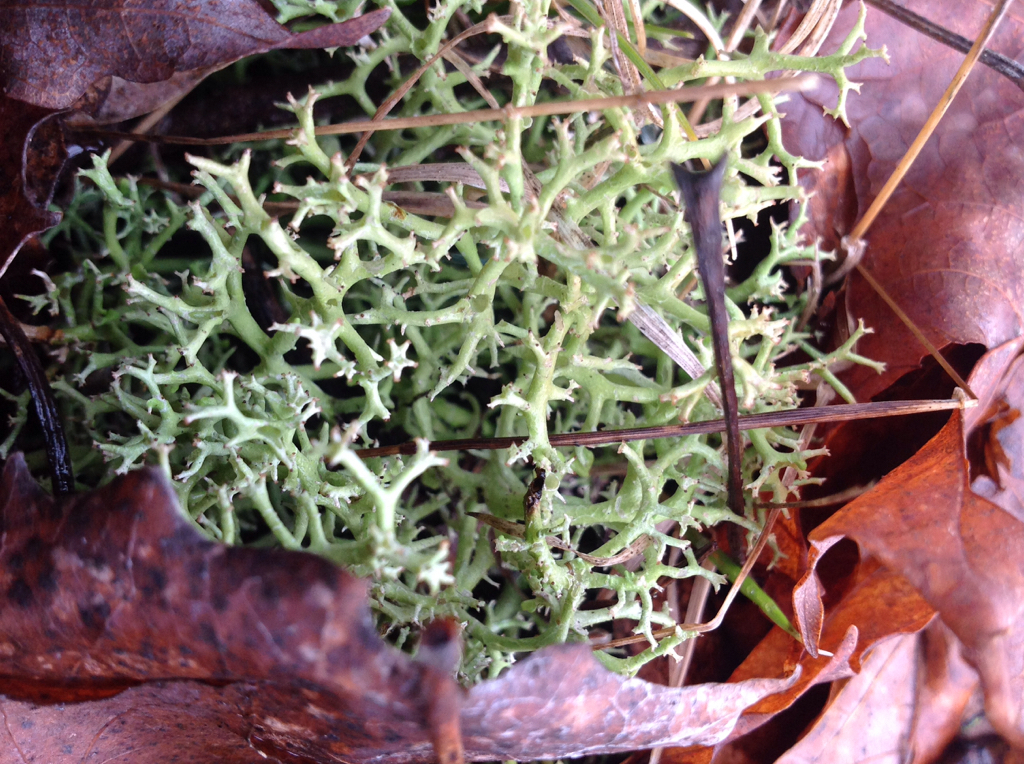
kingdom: Fungi
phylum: Ascomycota
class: Lecanoromycetes
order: Lecanorales
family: Cladoniaceae
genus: Cladonia
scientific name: Cladonia furcata
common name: Many-forked cladonia
